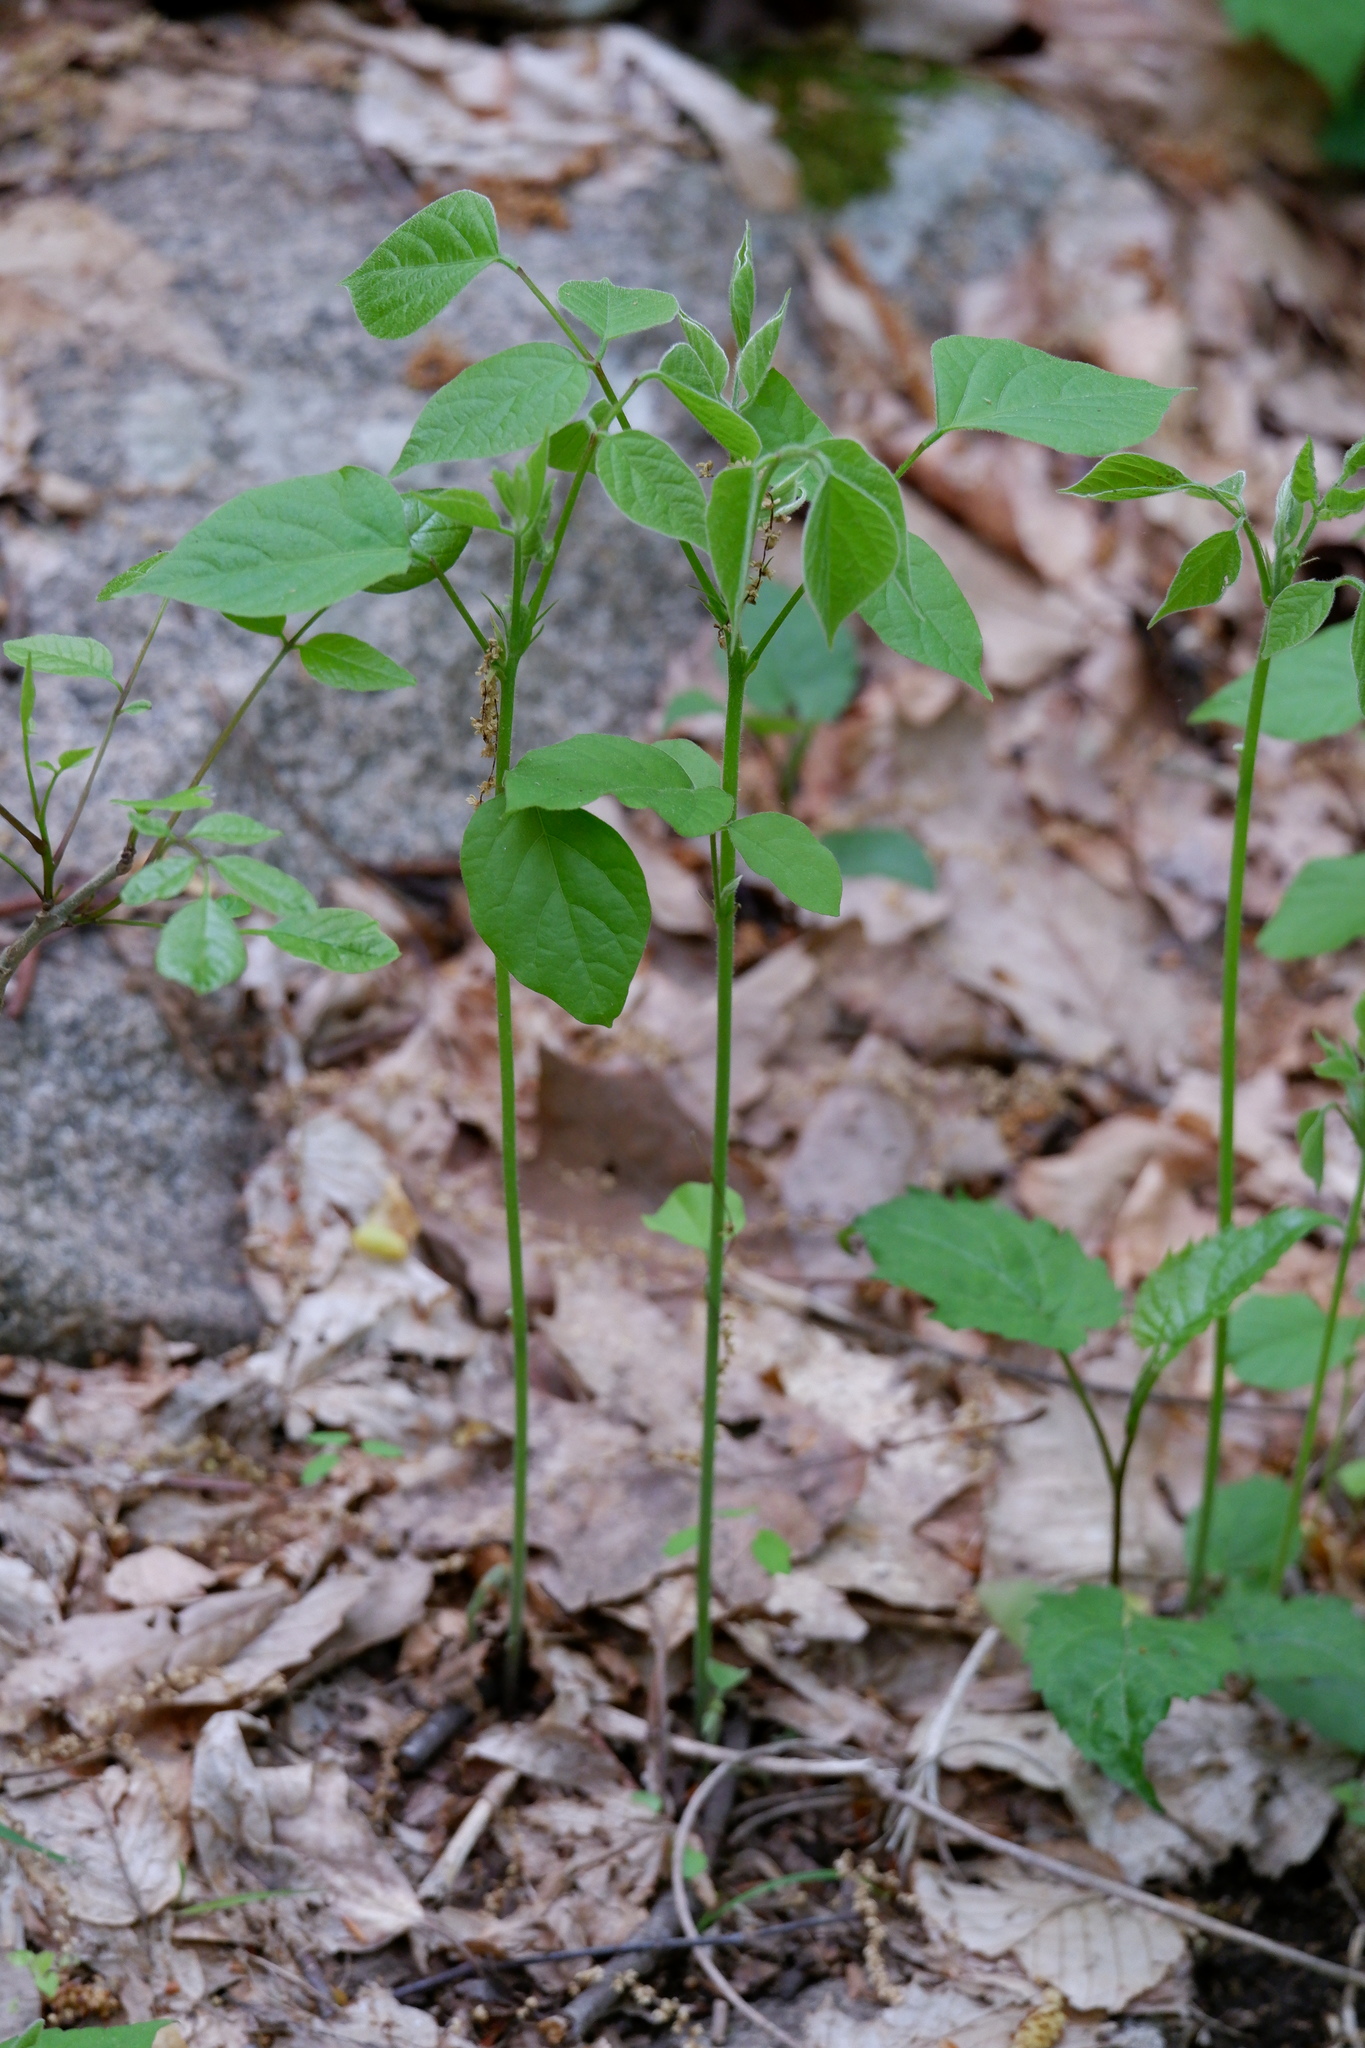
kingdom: Plantae
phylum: Tracheophyta
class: Magnoliopsida
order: Fabales
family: Fabaceae
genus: Hylodesmum
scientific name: Hylodesmum glutinosum
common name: Clustered-leaved tick-trefoil
